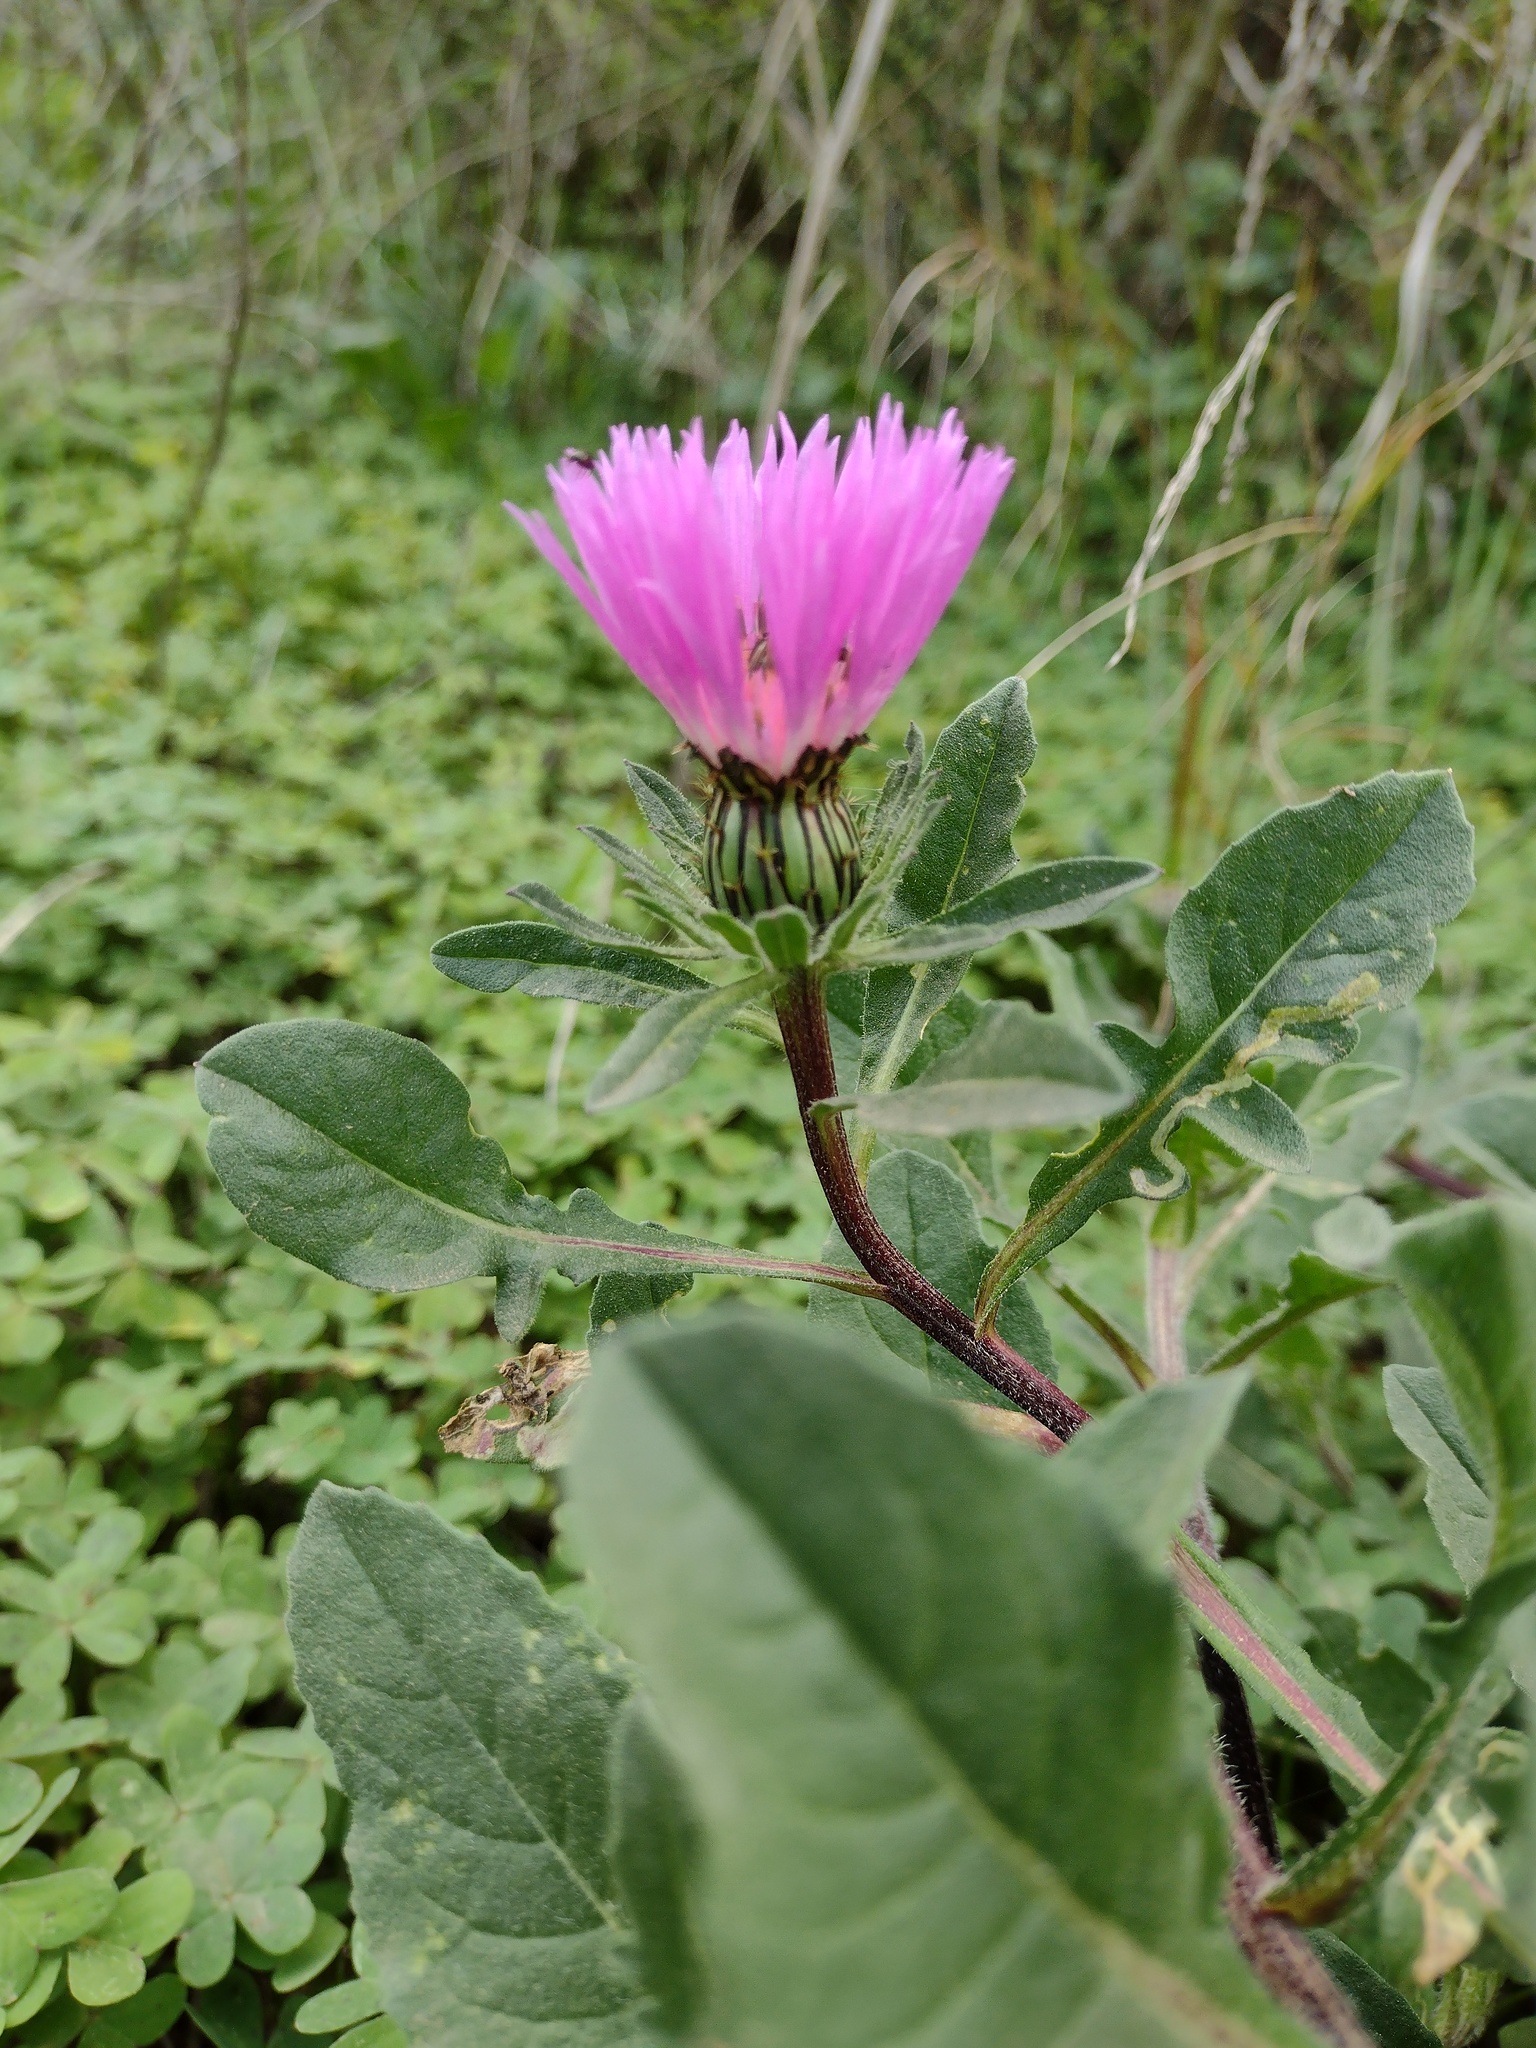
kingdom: Plantae
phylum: Tracheophyta
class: Magnoliopsida
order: Asterales
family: Asteraceae
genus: Centaurea
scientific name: Centaurea pullata
